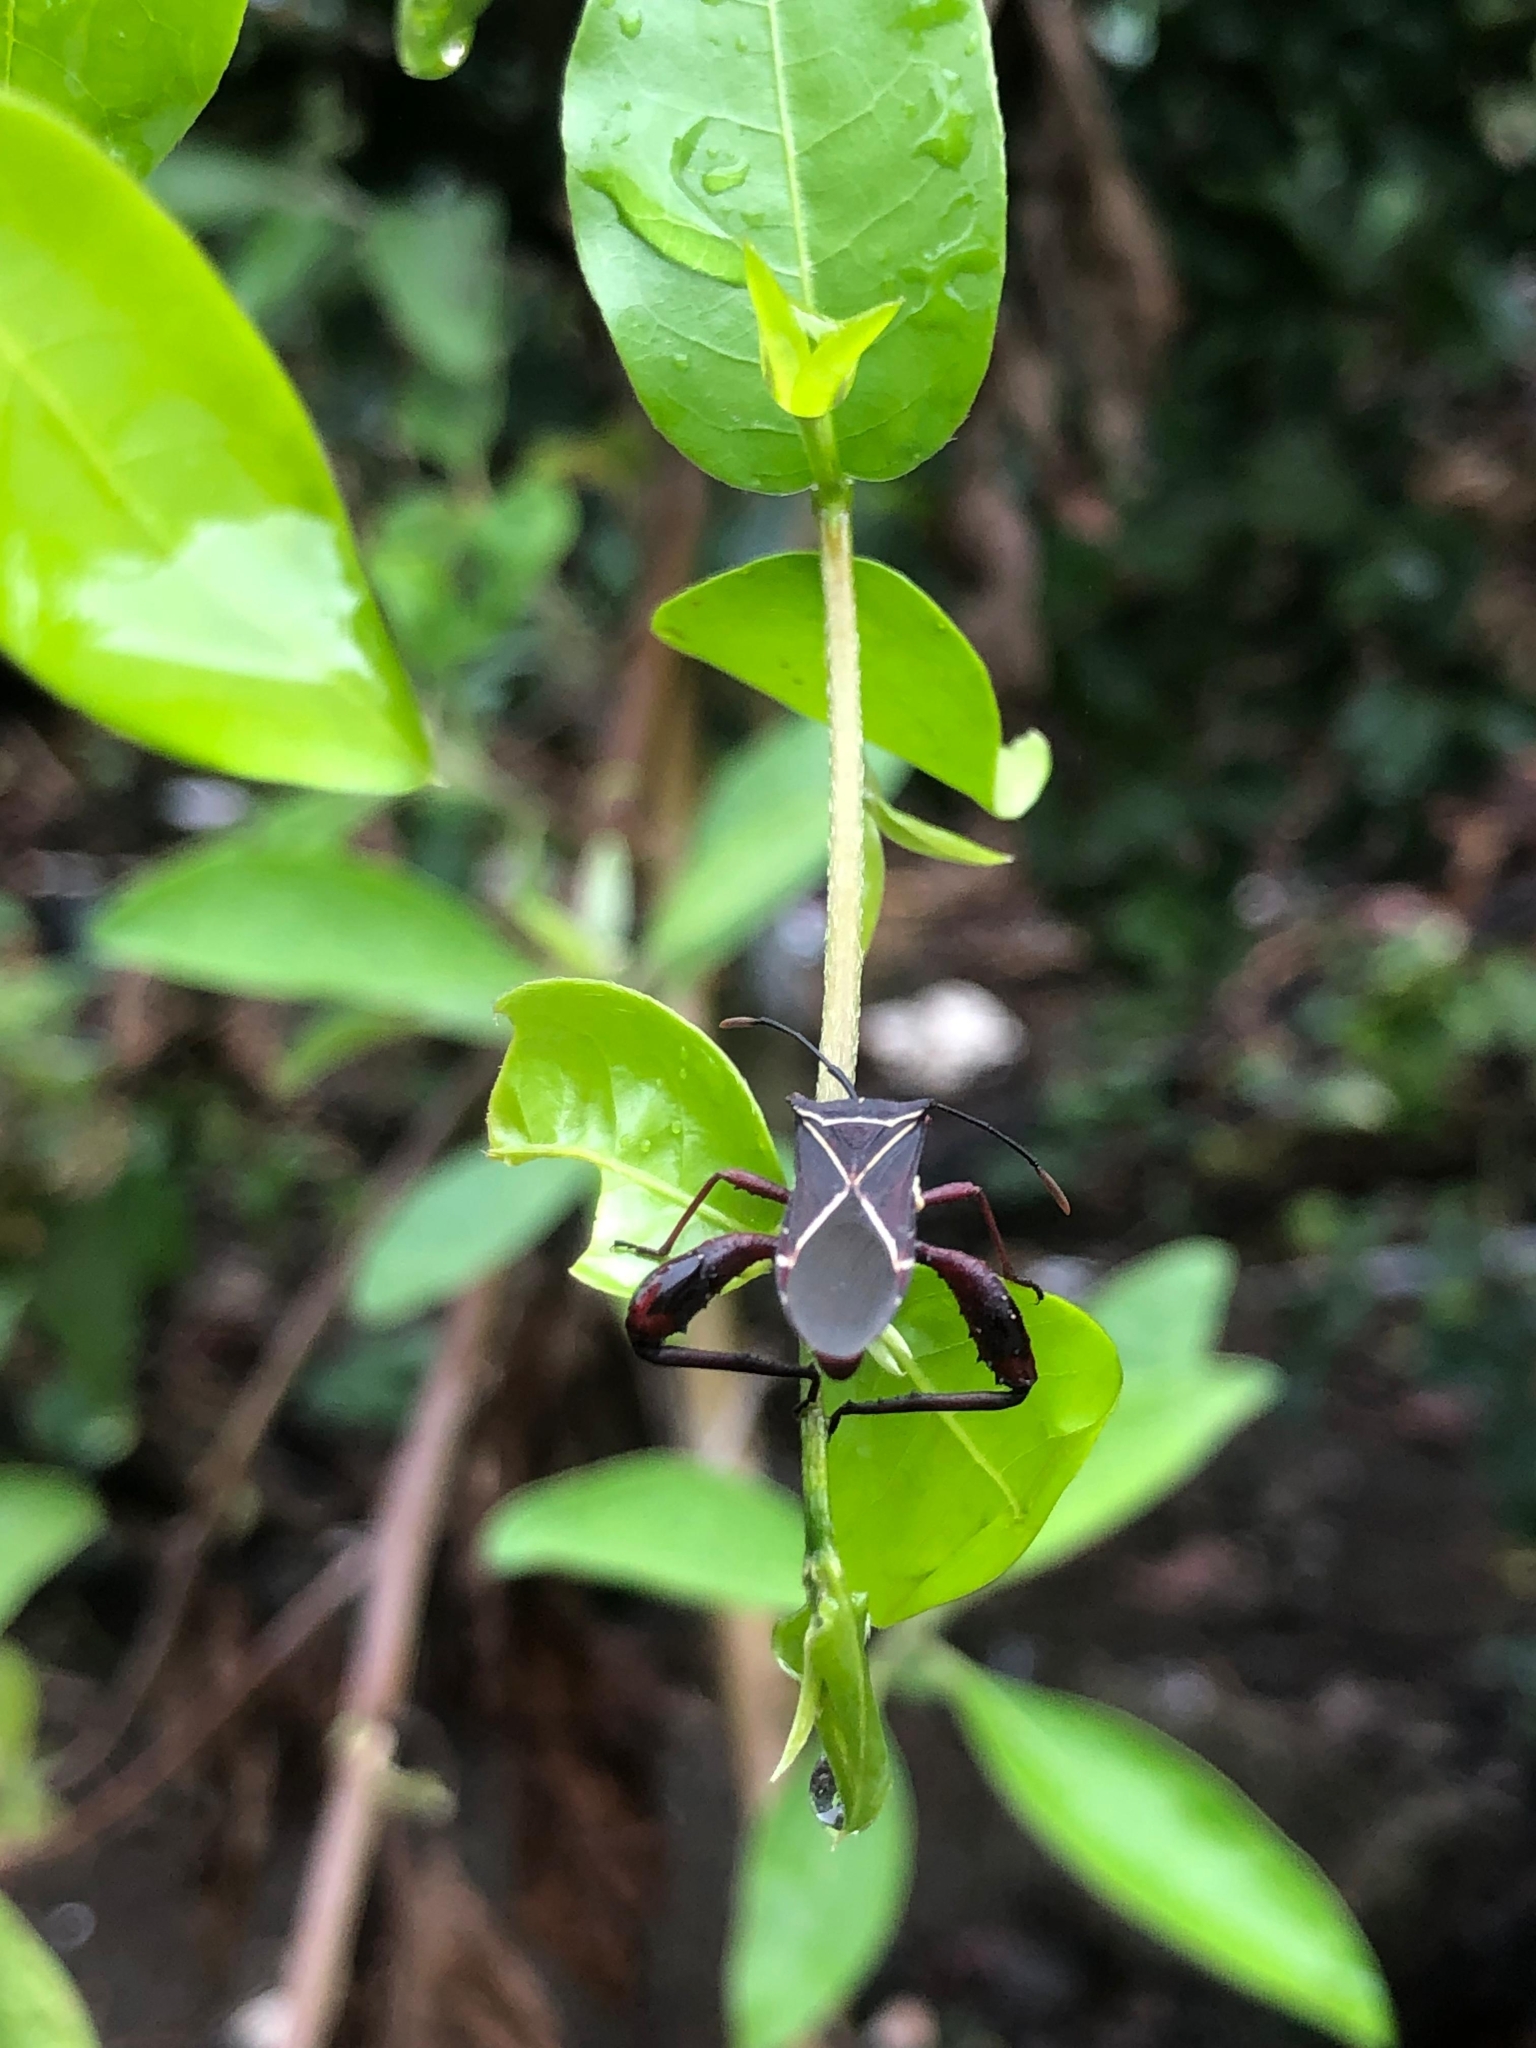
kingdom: Animalia
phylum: Arthropoda
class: Insecta
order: Hemiptera
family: Coreidae
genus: Acanthocerus
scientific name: Acanthocerus crucifer
